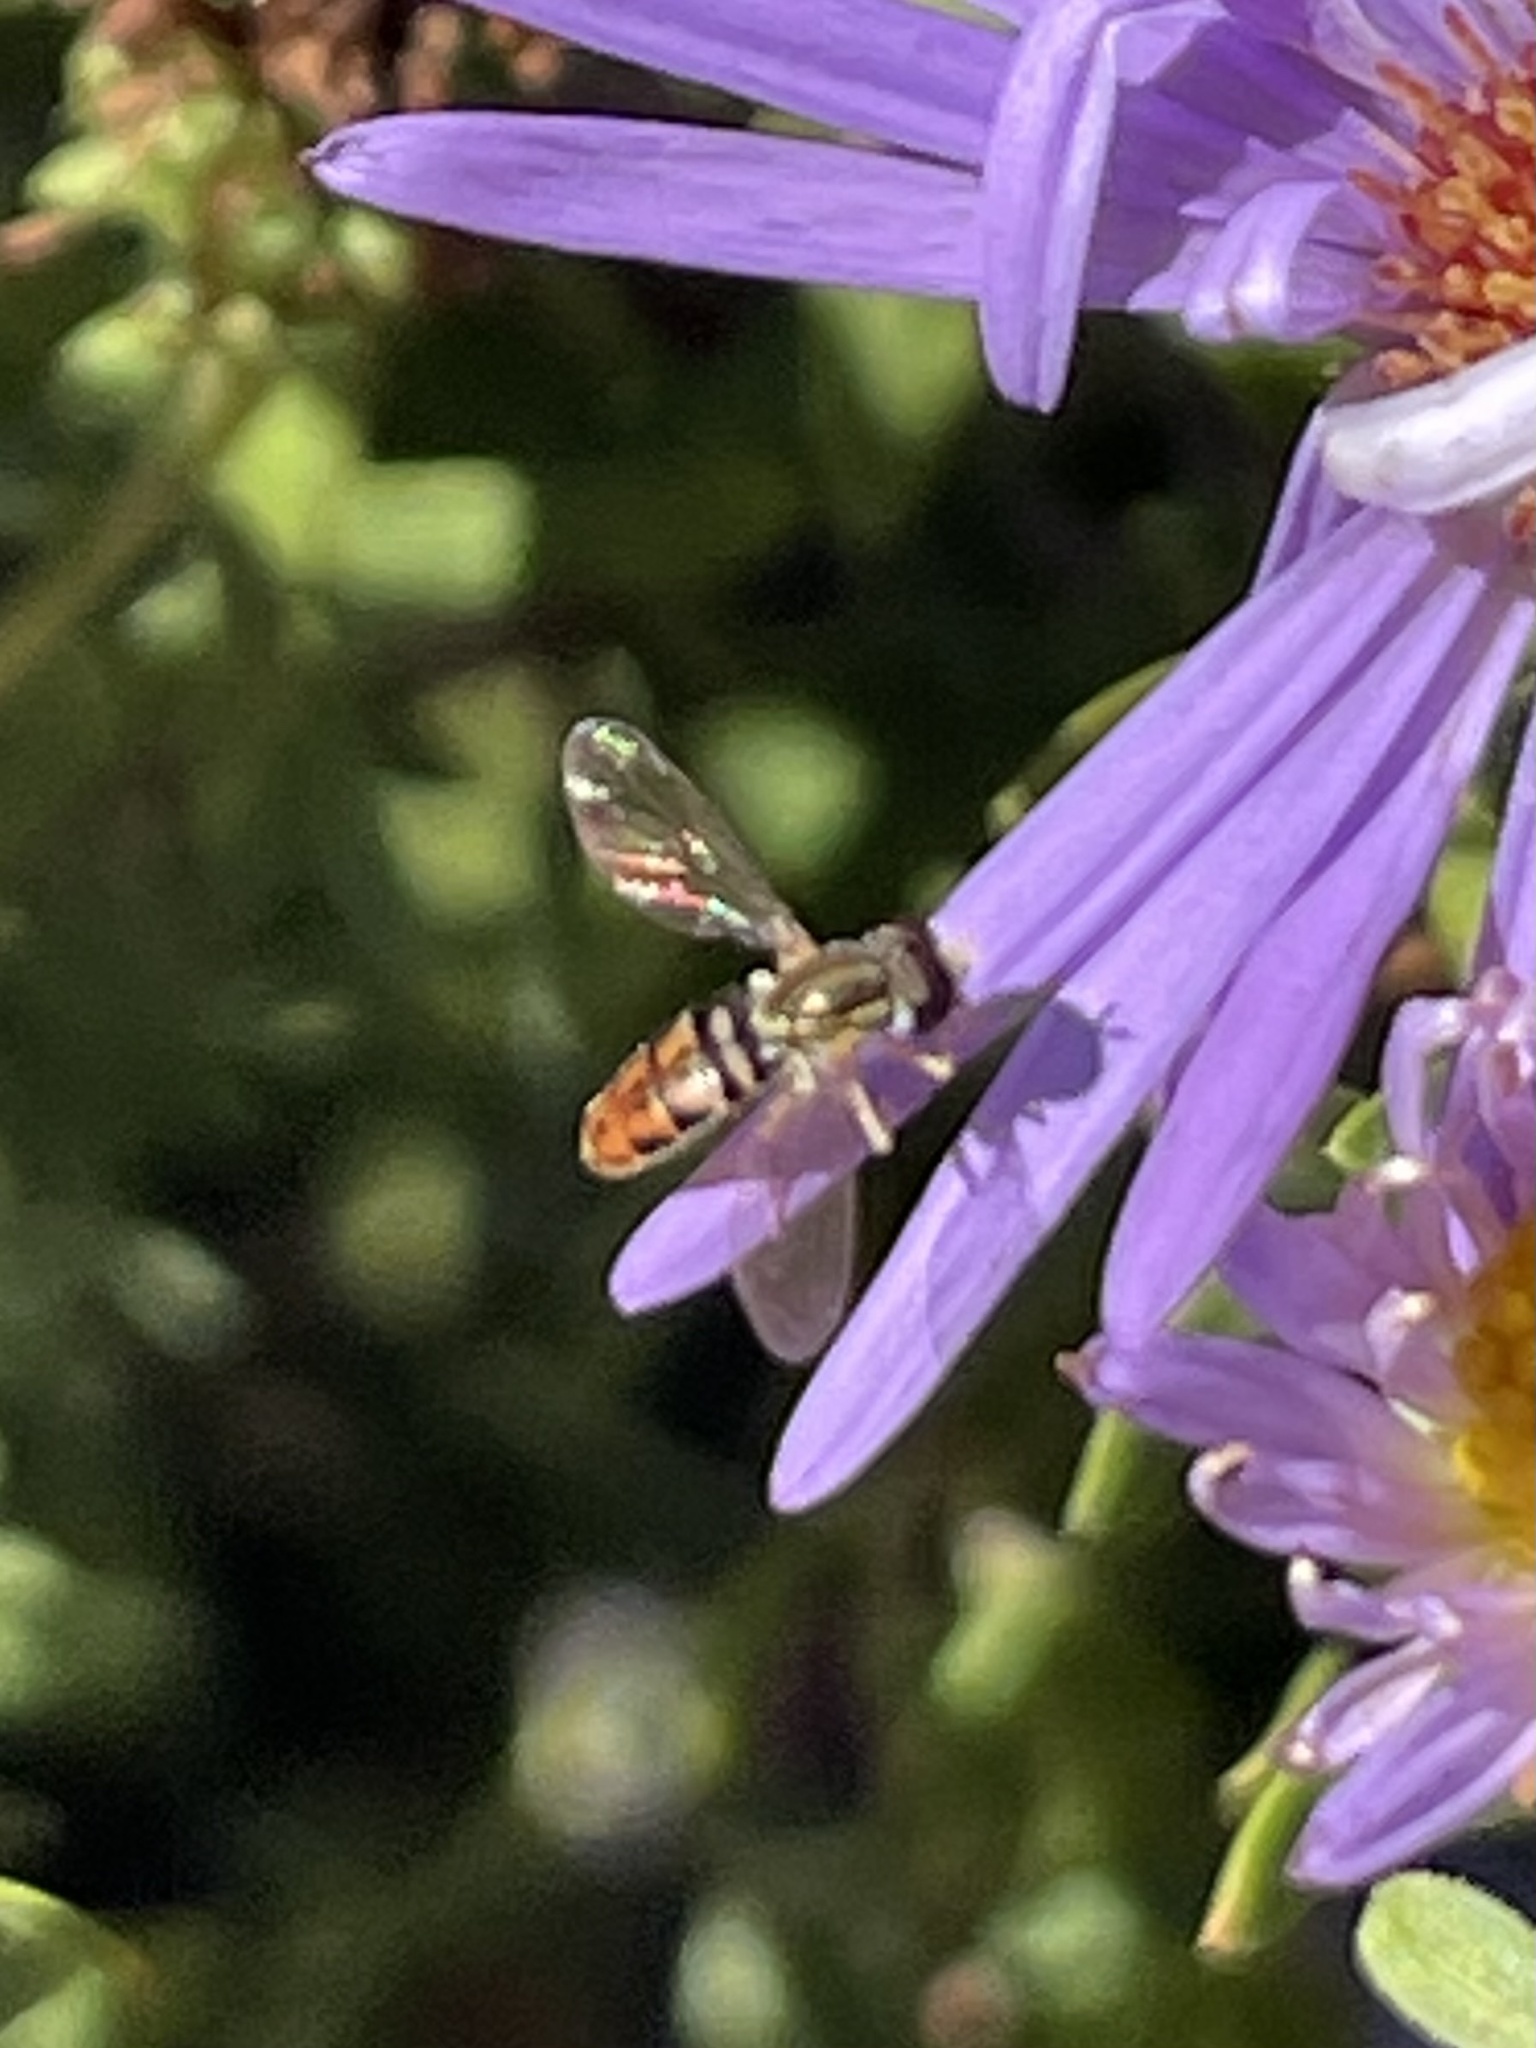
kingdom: Animalia
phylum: Arthropoda
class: Insecta
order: Diptera
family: Syrphidae
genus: Toxomerus
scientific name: Toxomerus marginatus
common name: Syrphid fly
